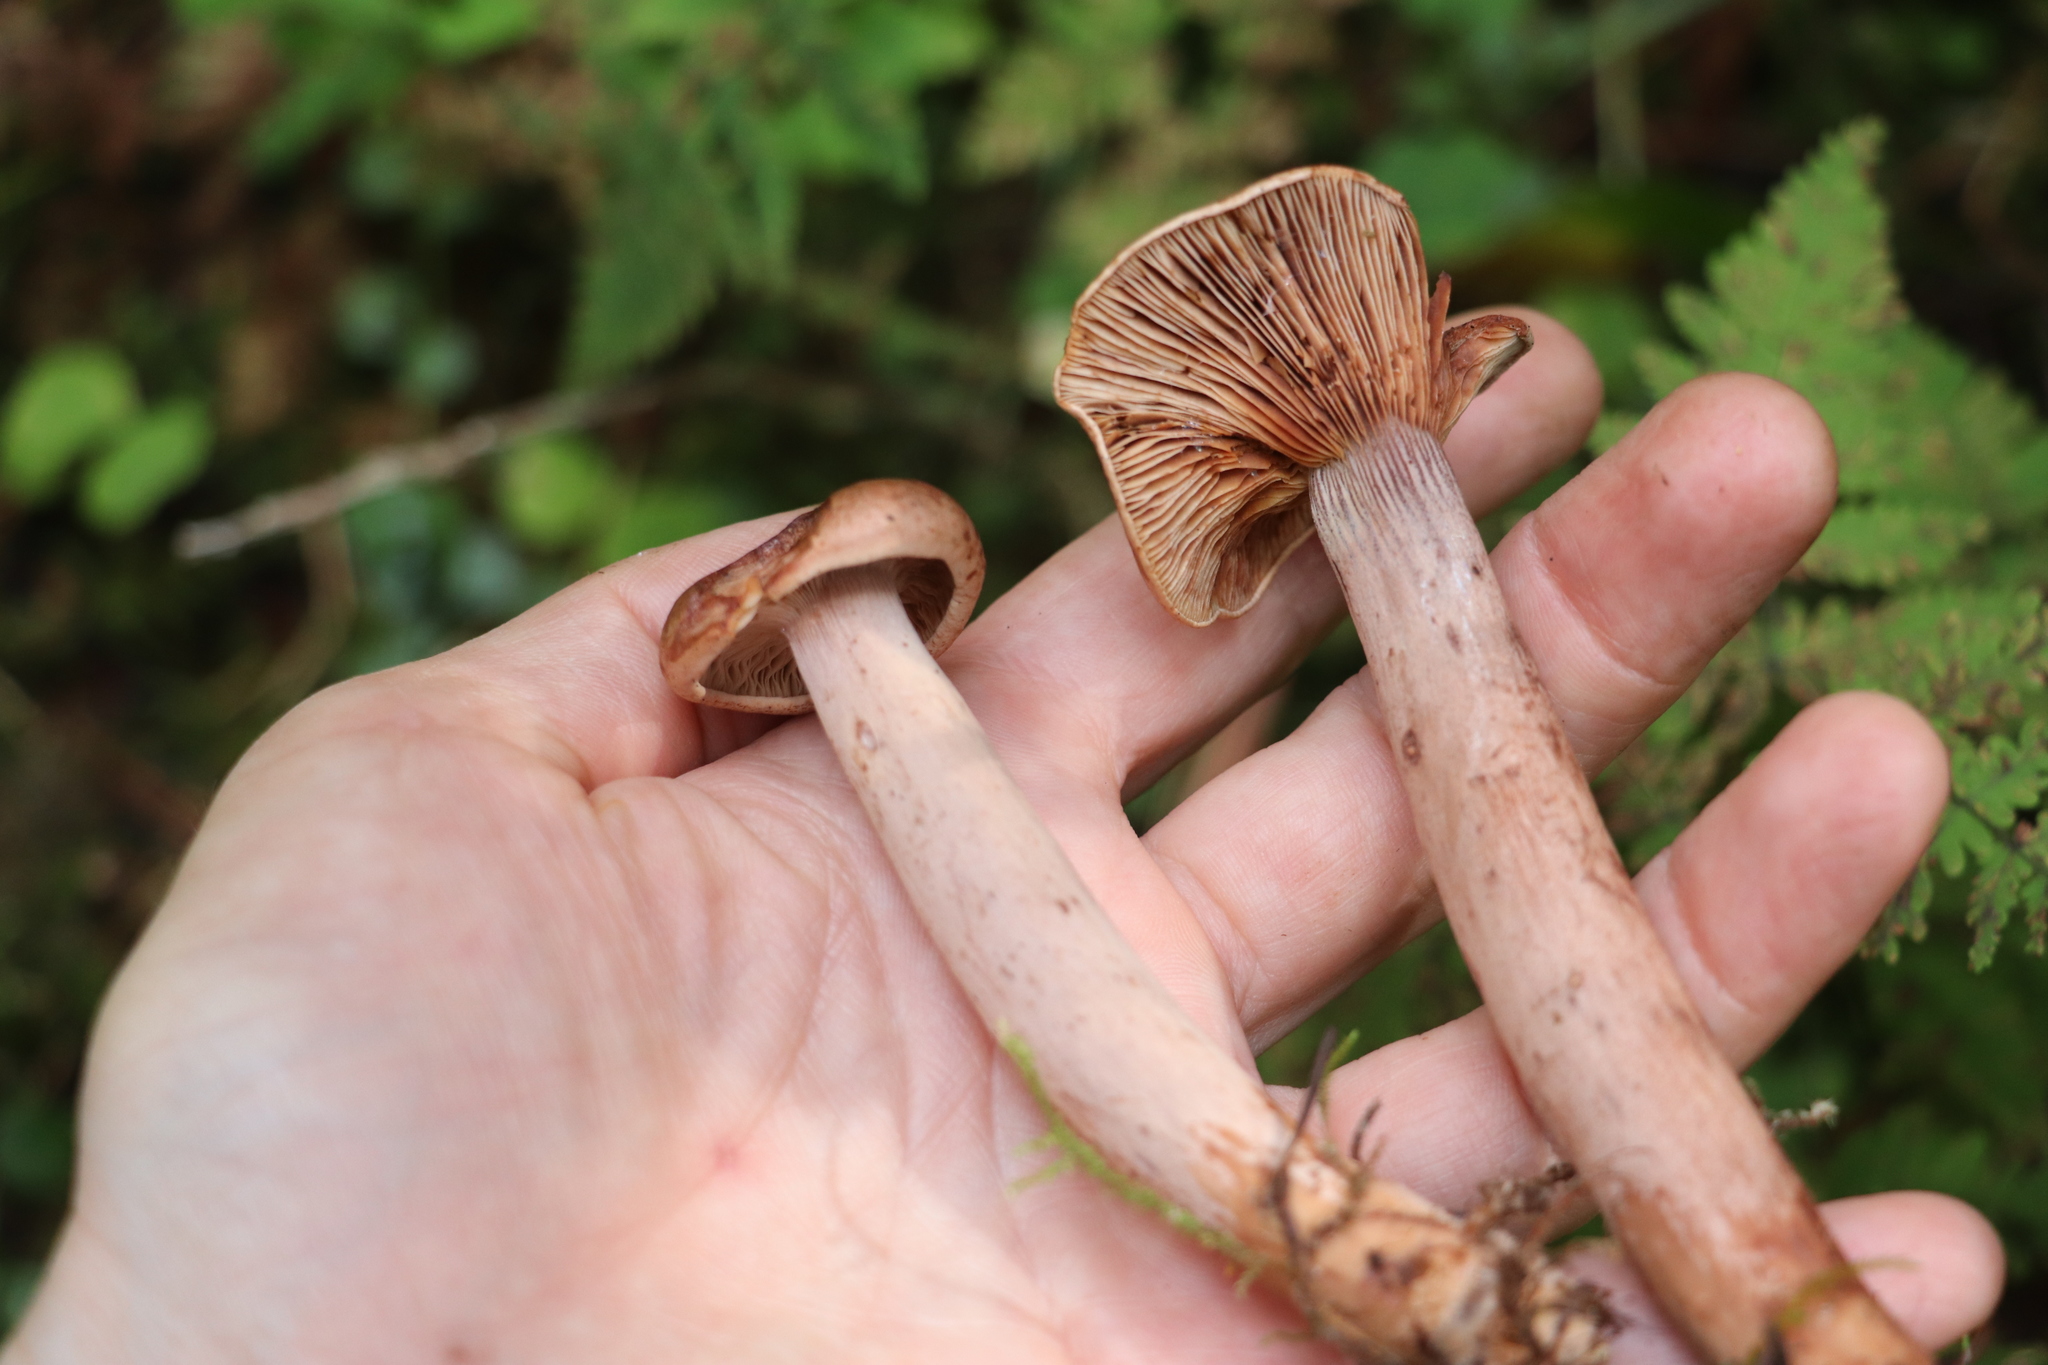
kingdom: Fungi
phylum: Basidiomycota
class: Agaricomycetes
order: Russulales
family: Russulaceae
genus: Lactarius
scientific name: Lactarius rufus
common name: Rufous milk-cap
